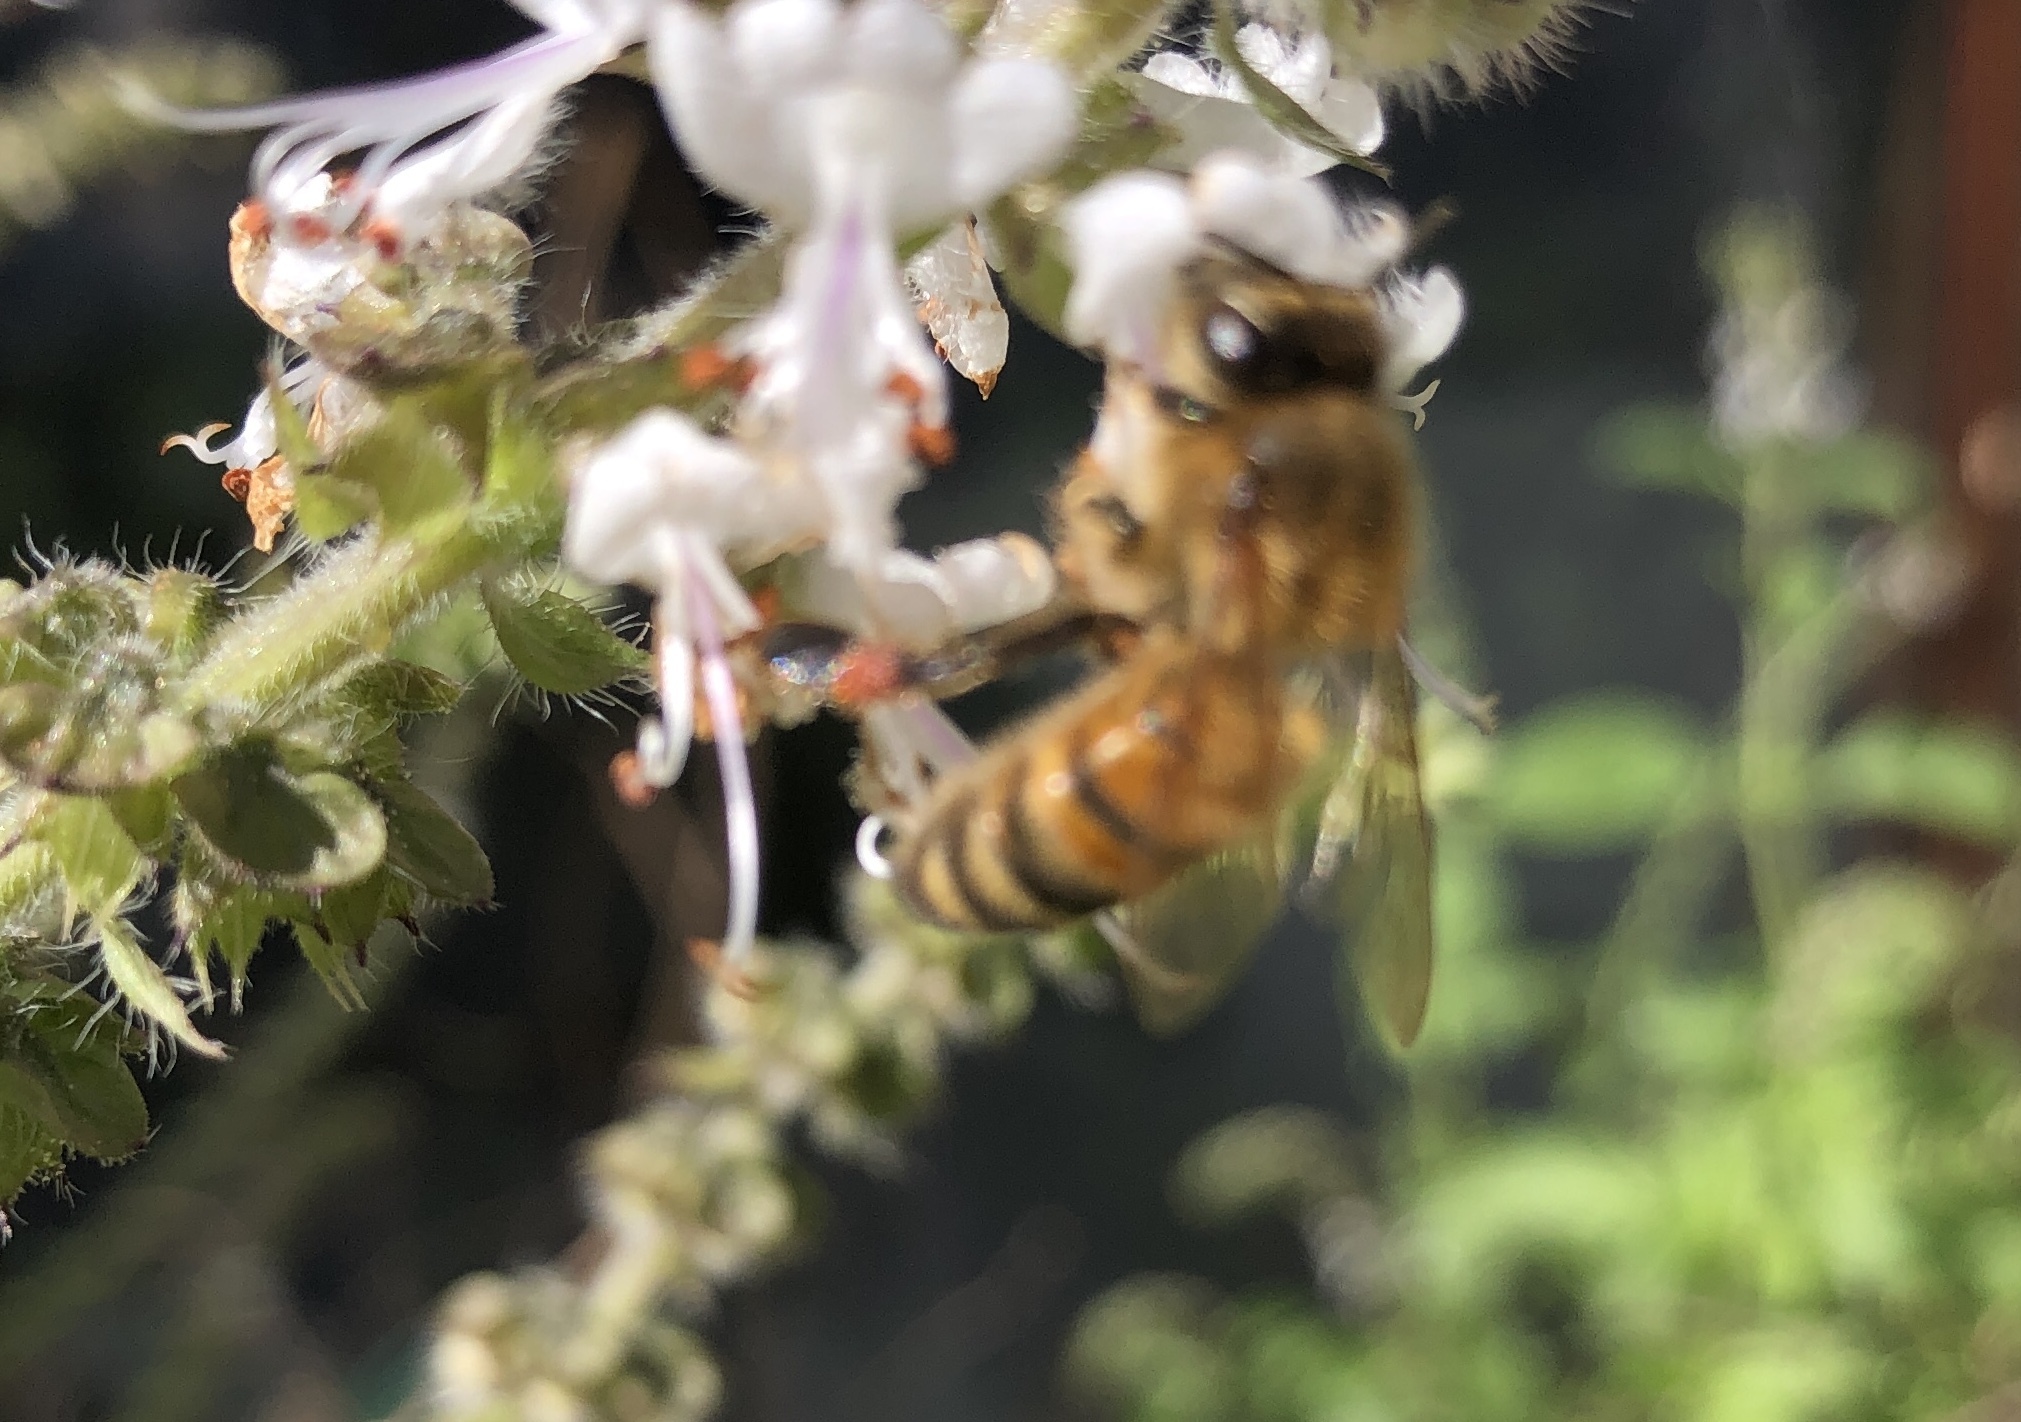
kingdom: Animalia
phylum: Arthropoda
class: Insecta
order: Hymenoptera
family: Apidae
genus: Apis
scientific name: Apis mellifera
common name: Honey bee
